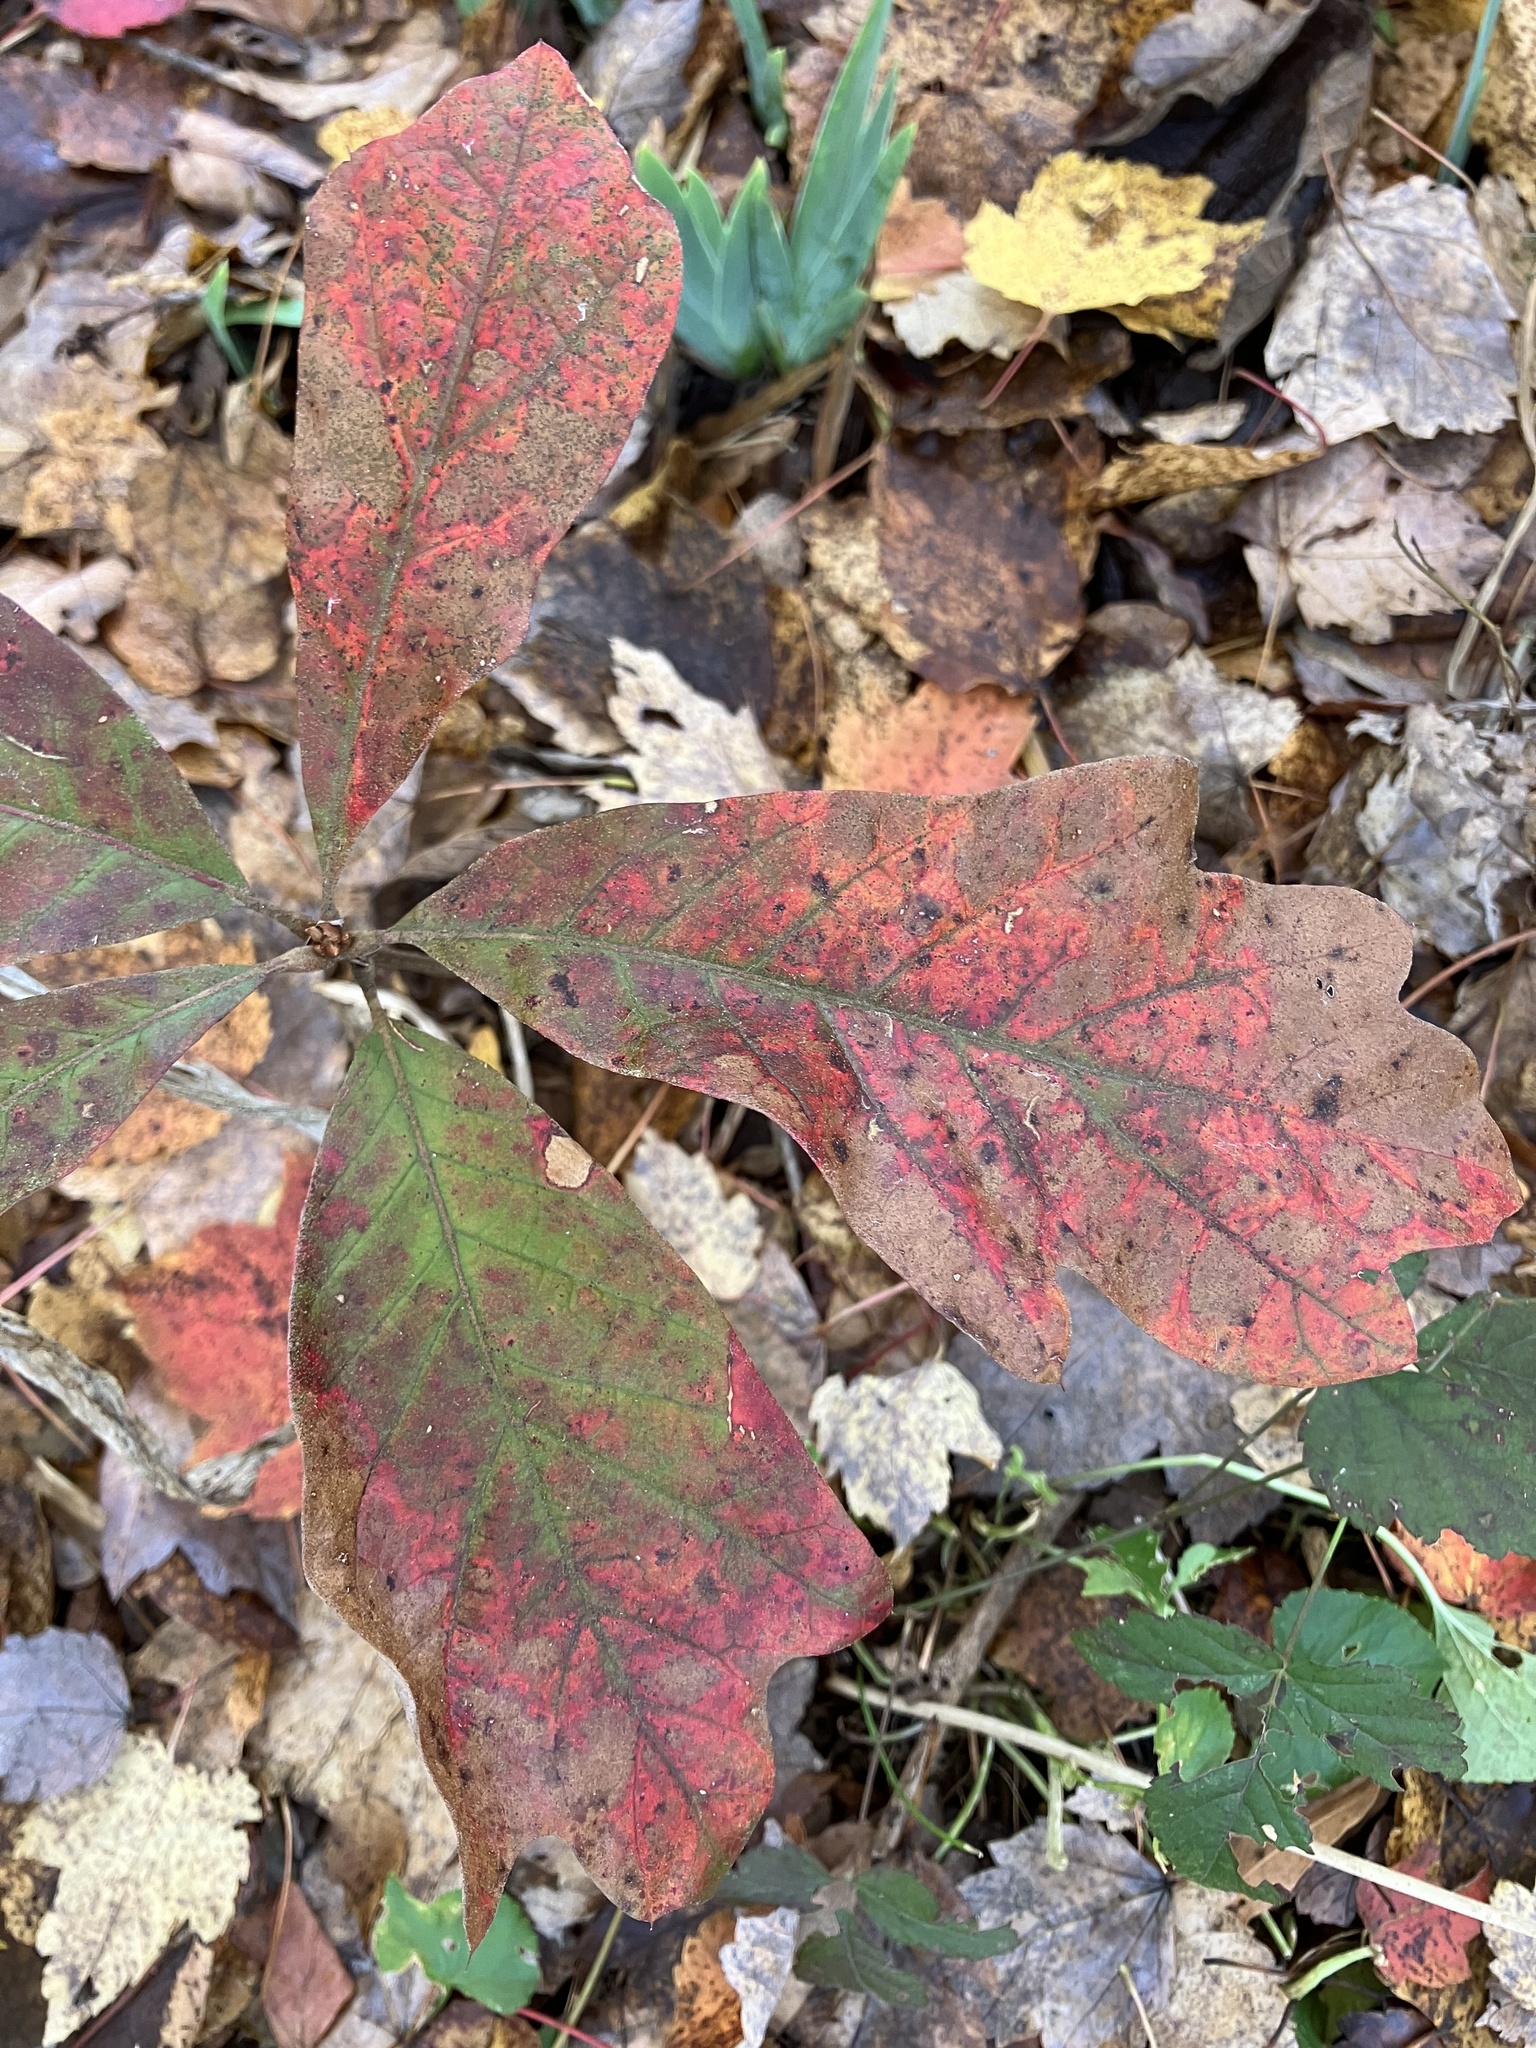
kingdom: Plantae
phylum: Tracheophyta
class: Magnoliopsida
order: Fagales
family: Fagaceae
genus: Quercus
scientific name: Quercus falcata
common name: Southern red oak
